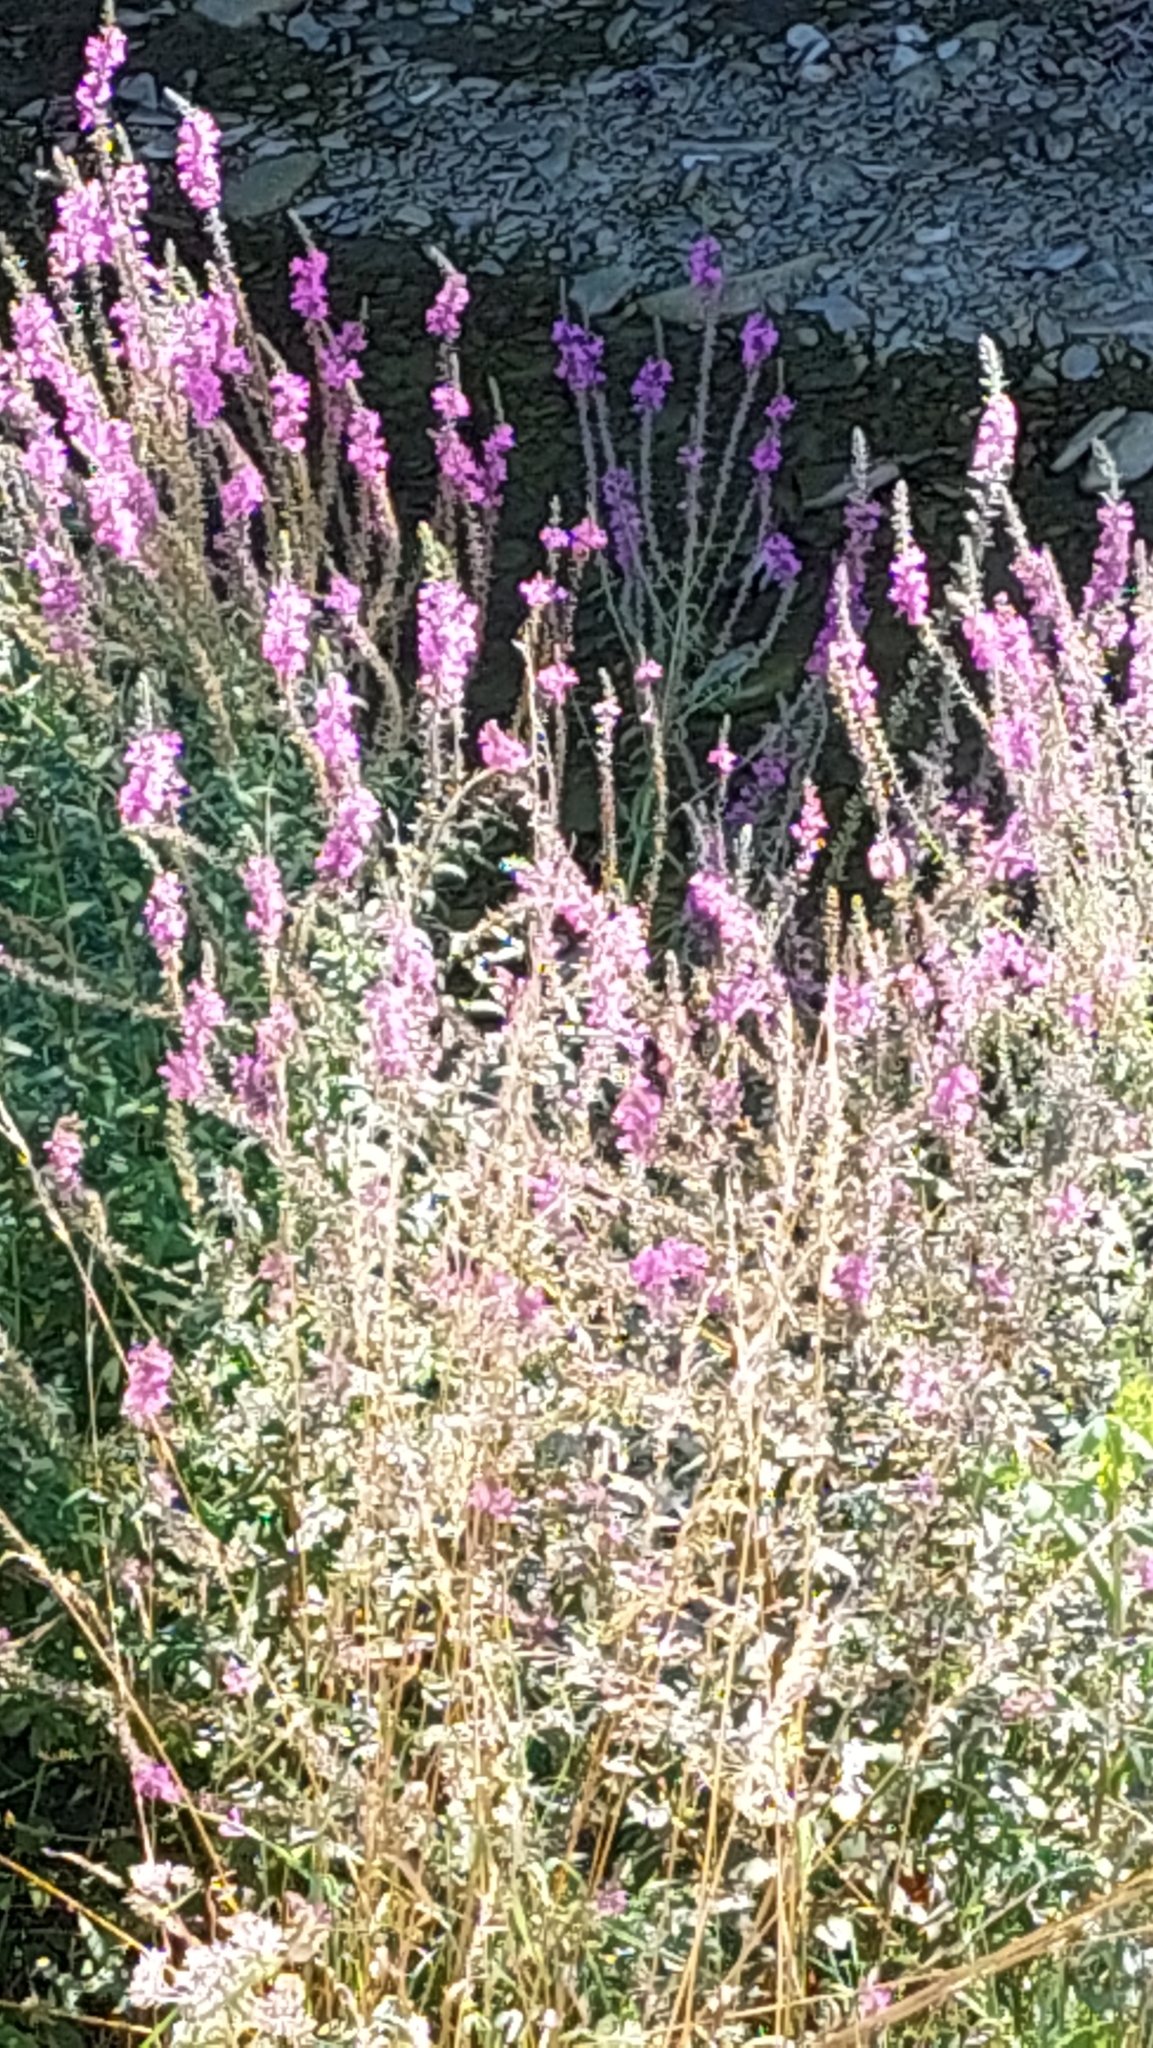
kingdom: Plantae
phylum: Tracheophyta
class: Magnoliopsida
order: Myrtales
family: Lythraceae
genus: Lythrum
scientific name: Lythrum salicaria
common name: Purple loosestrife
